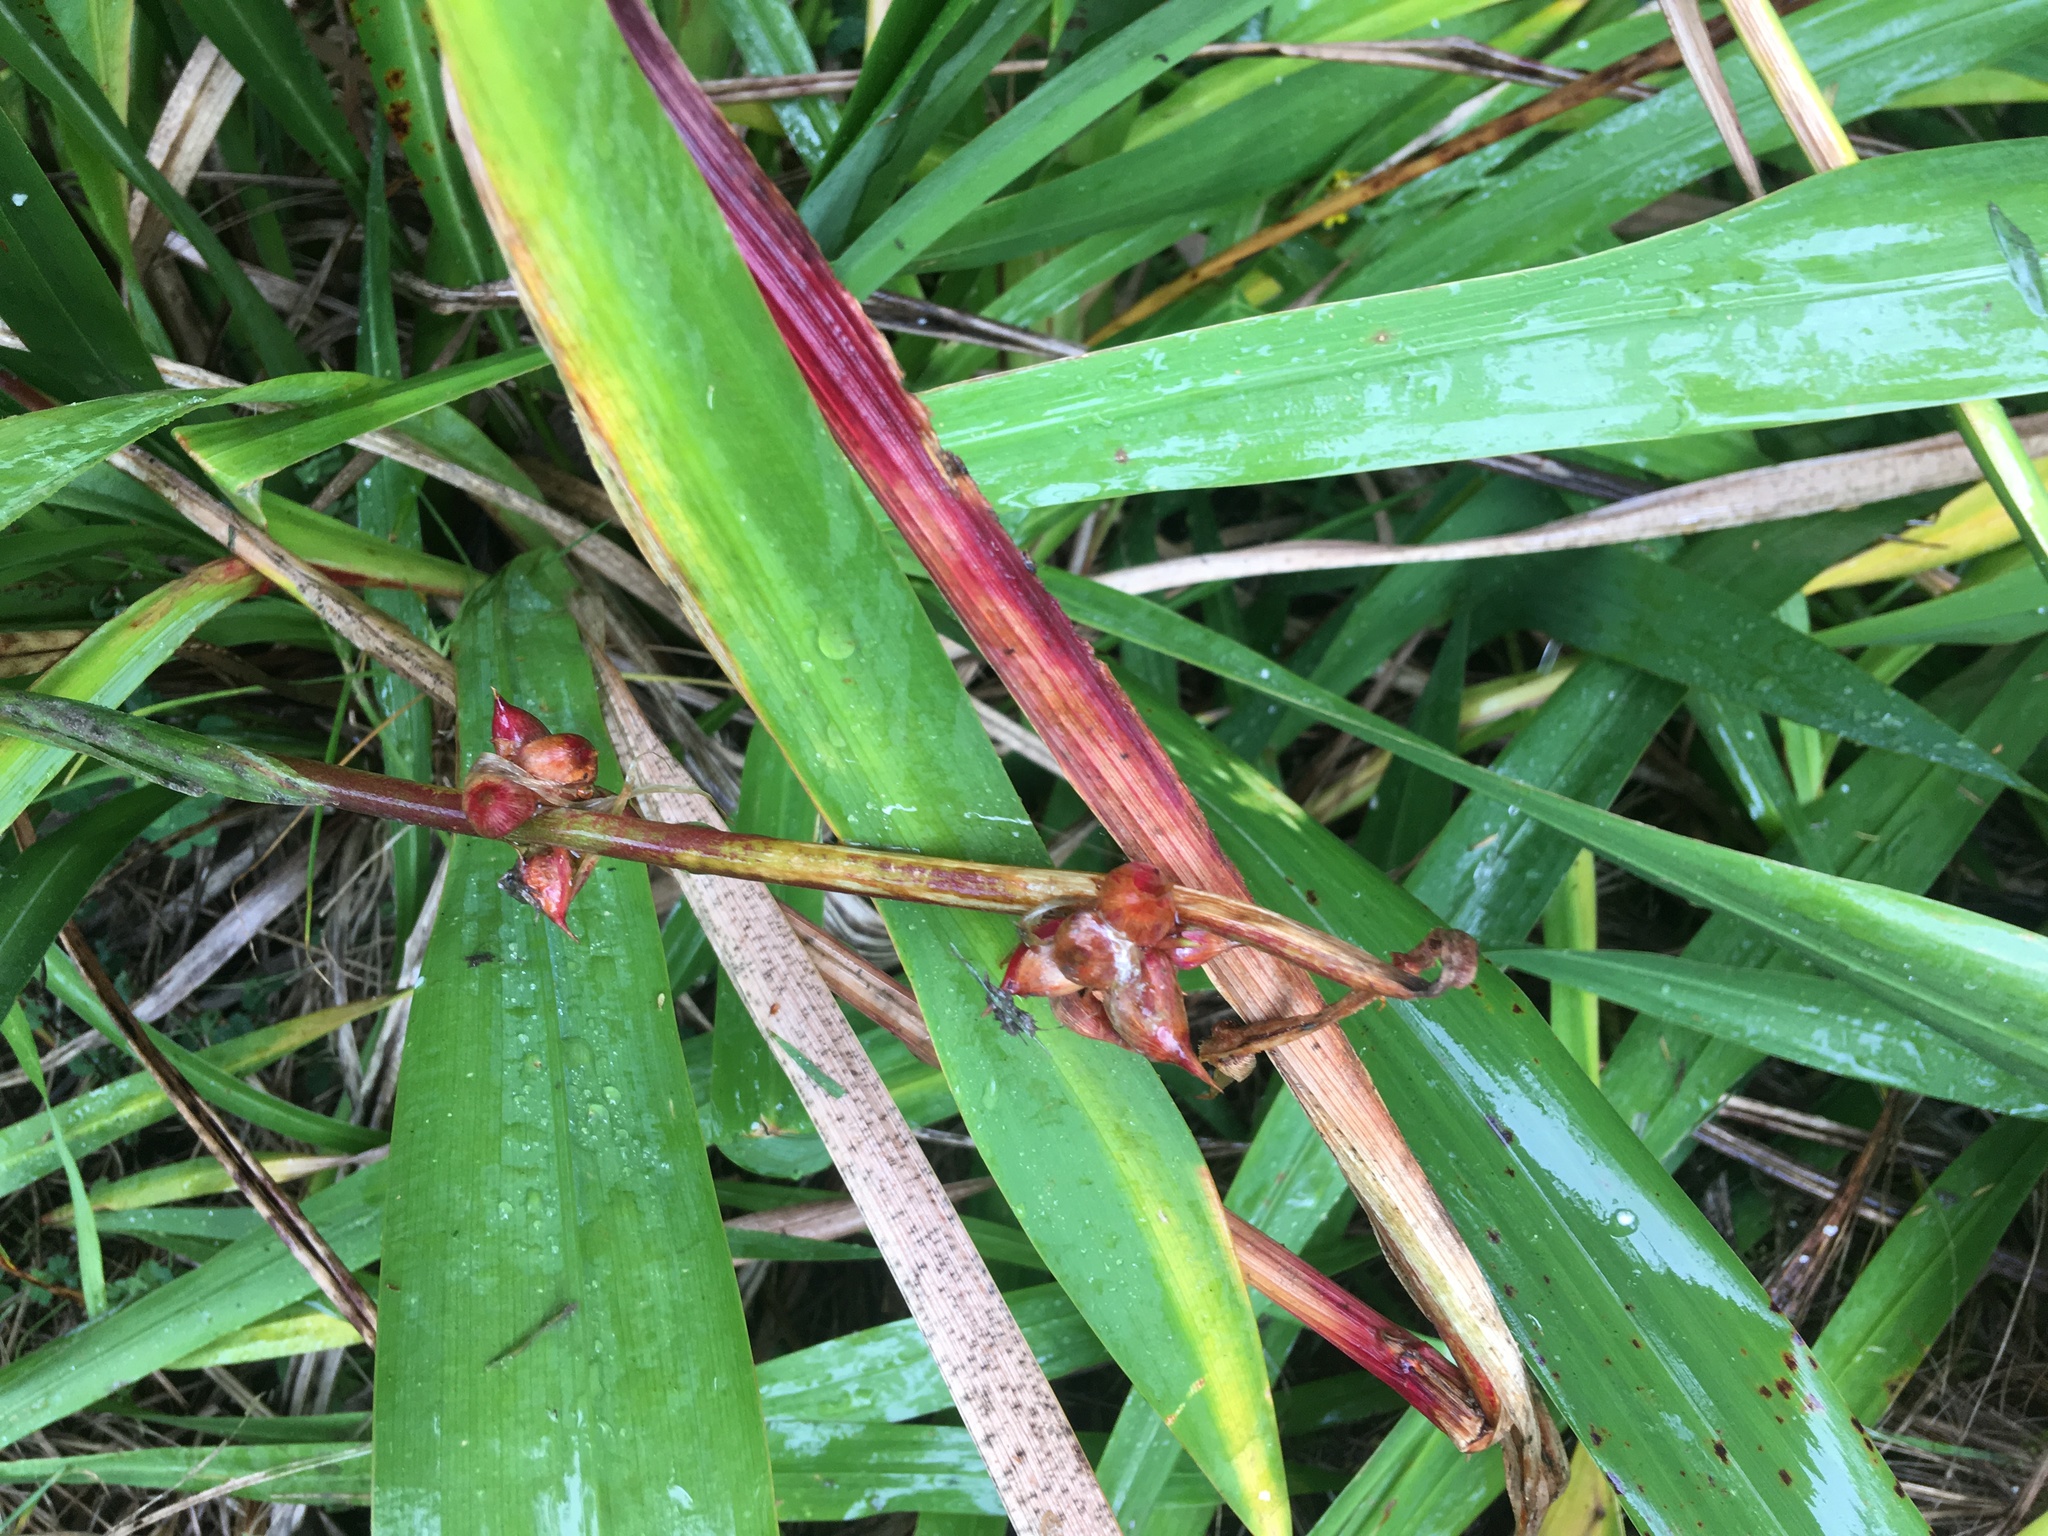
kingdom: Plantae
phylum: Tracheophyta
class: Liliopsida
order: Asparagales
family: Iridaceae
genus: Watsonia
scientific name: Watsonia meriana
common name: Bulbil bugle-lily
